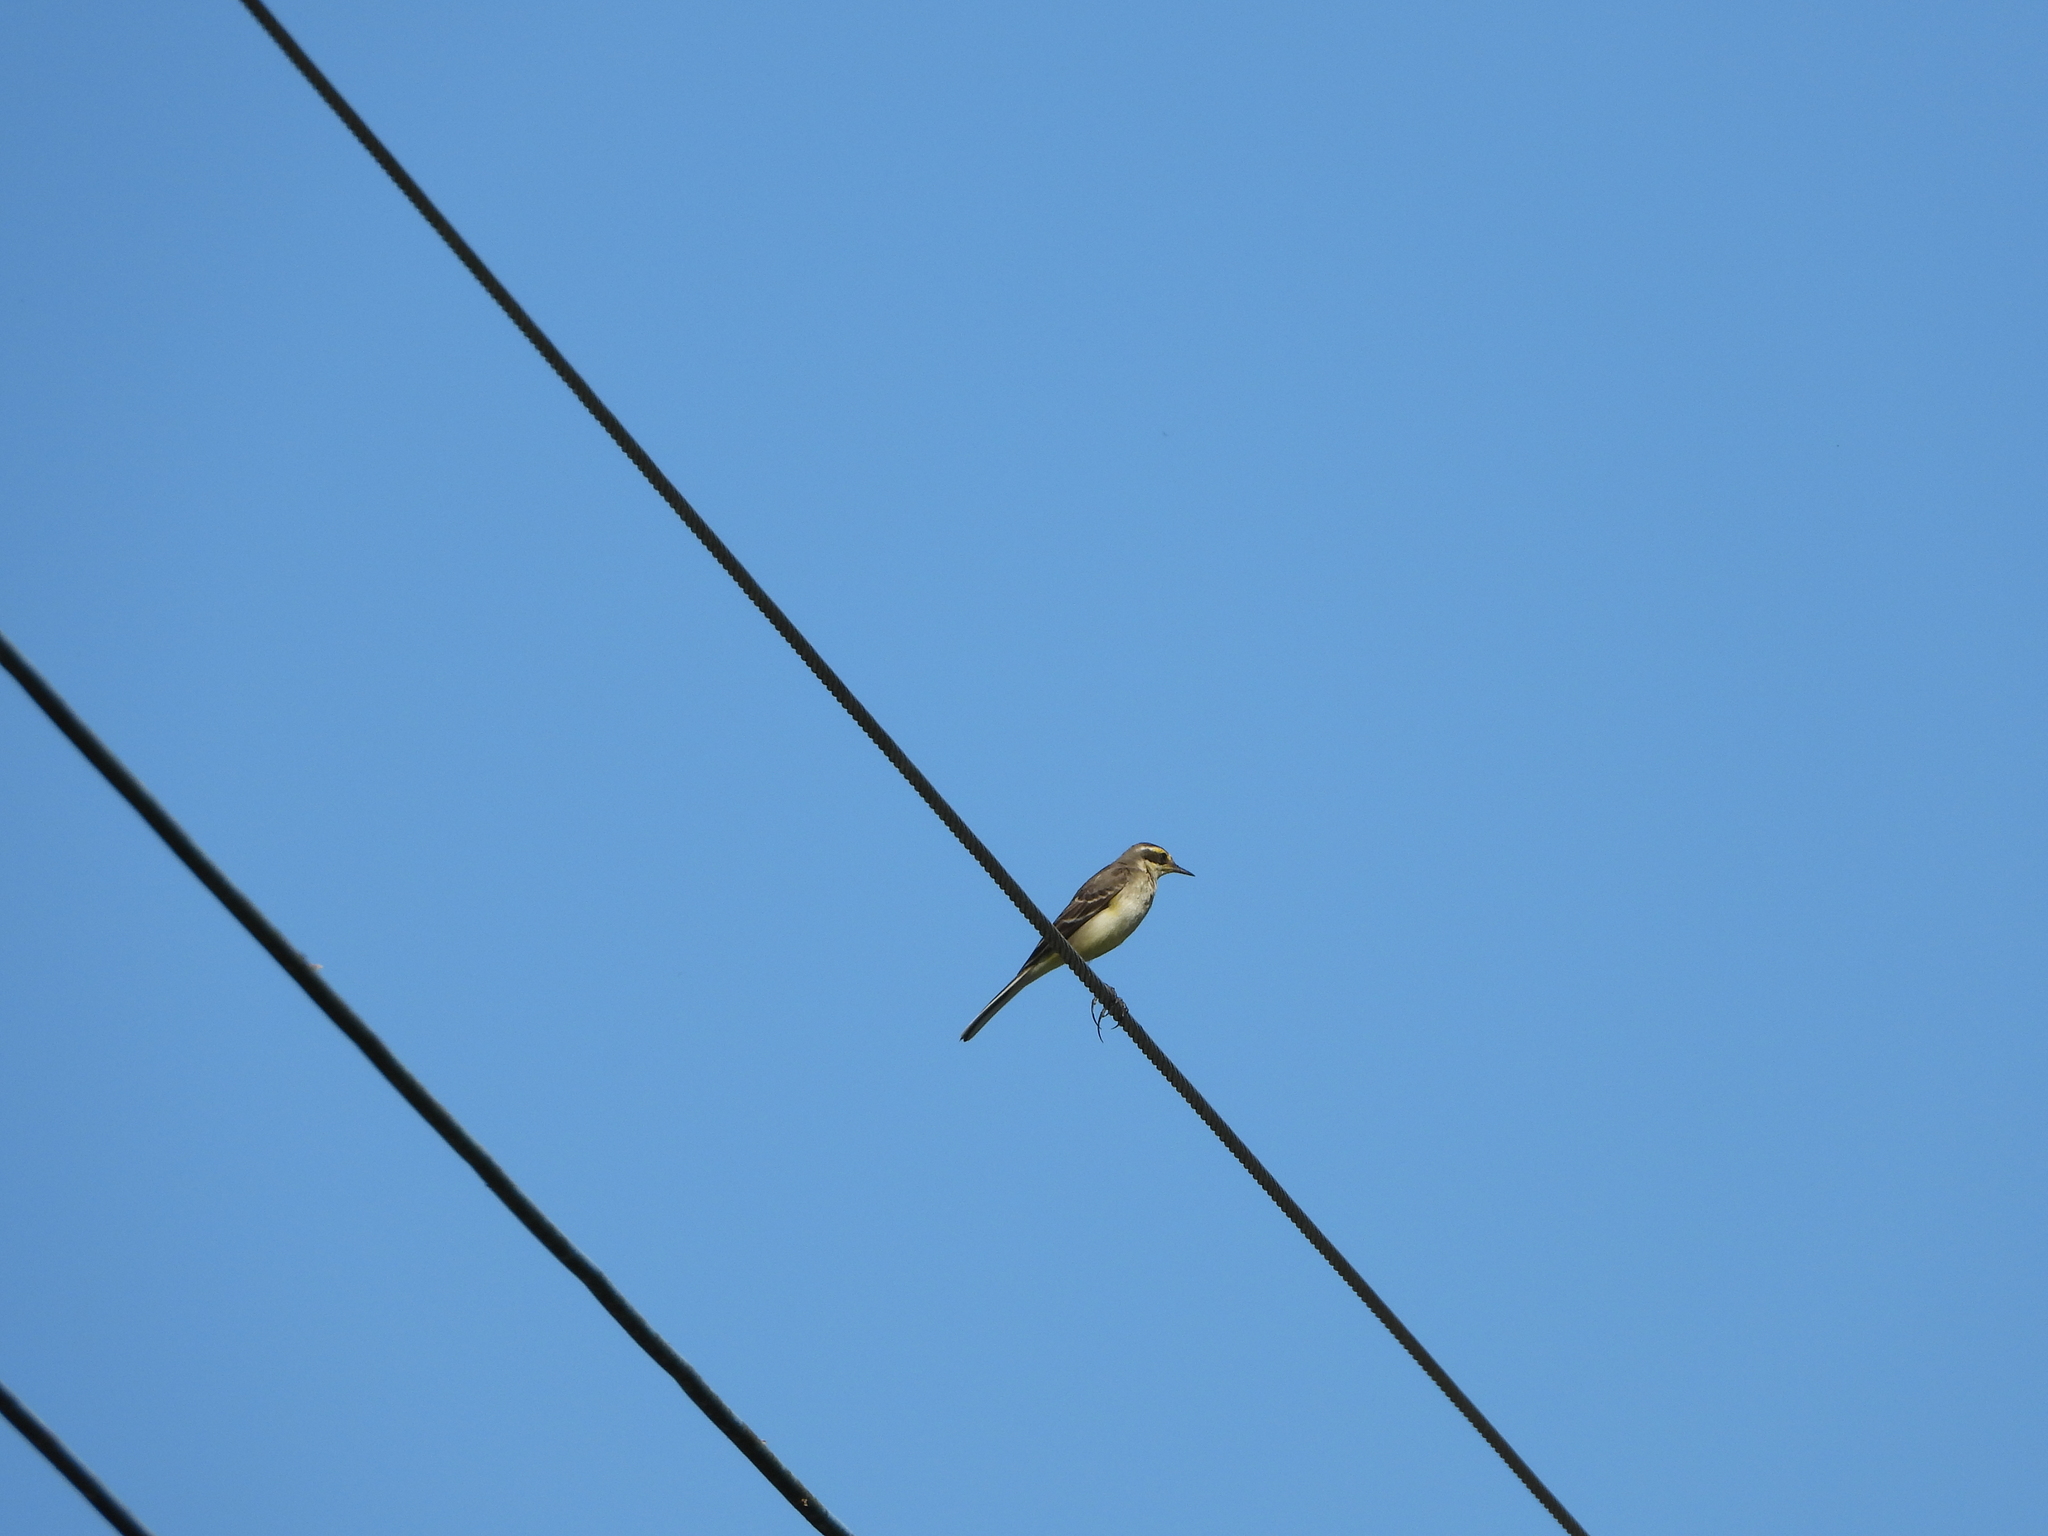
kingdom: Animalia
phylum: Chordata
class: Aves
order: Passeriformes
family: Motacillidae
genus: Motacilla
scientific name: Motacilla tschutschensis
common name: Eastern yellow wagtail
